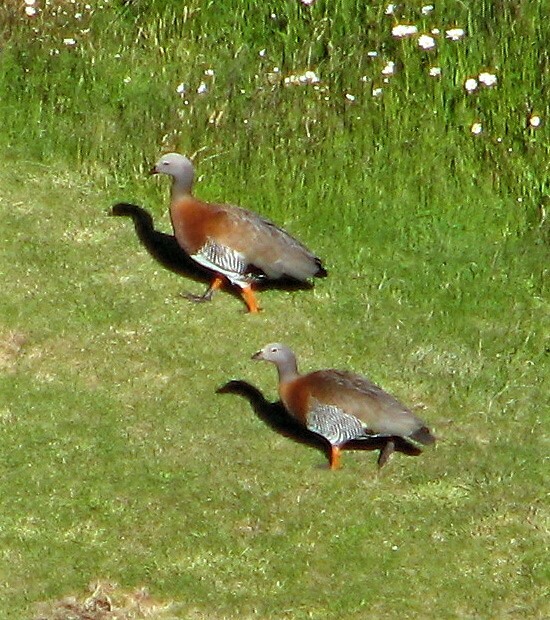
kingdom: Animalia
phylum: Chordata
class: Aves
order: Anseriformes
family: Anatidae
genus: Chloephaga
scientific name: Chloephaga poliocephala
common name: Ashy-headed goose
